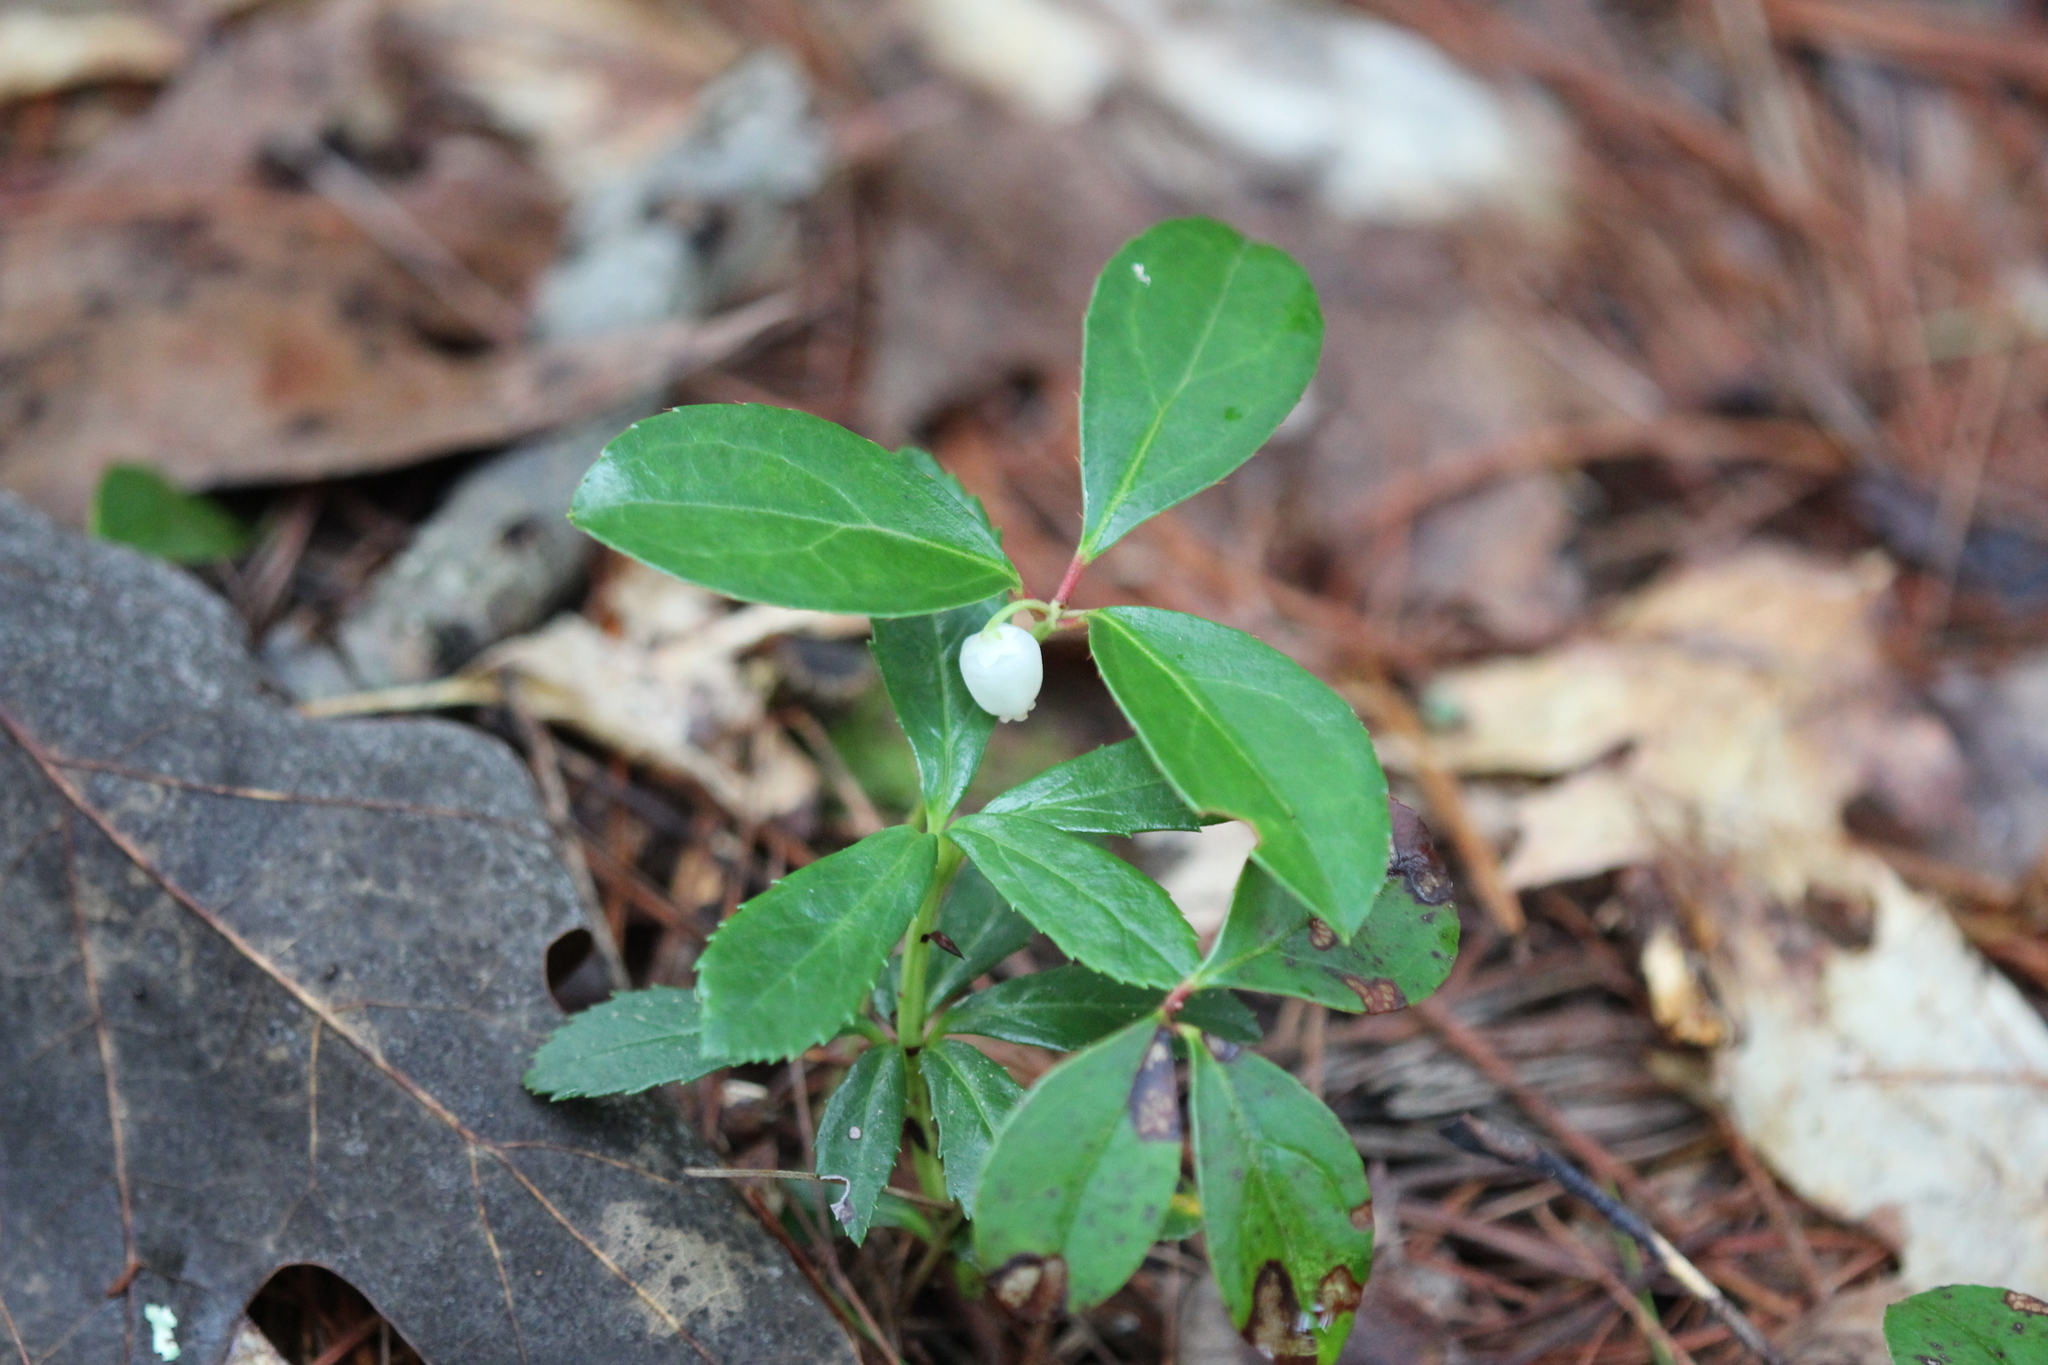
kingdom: Plantae
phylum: Tracheophyta
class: Magnoliopsida
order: Ericales
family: Ericaceae
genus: Gaultheria
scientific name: Gaultheria procumbens
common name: Checkerberry
